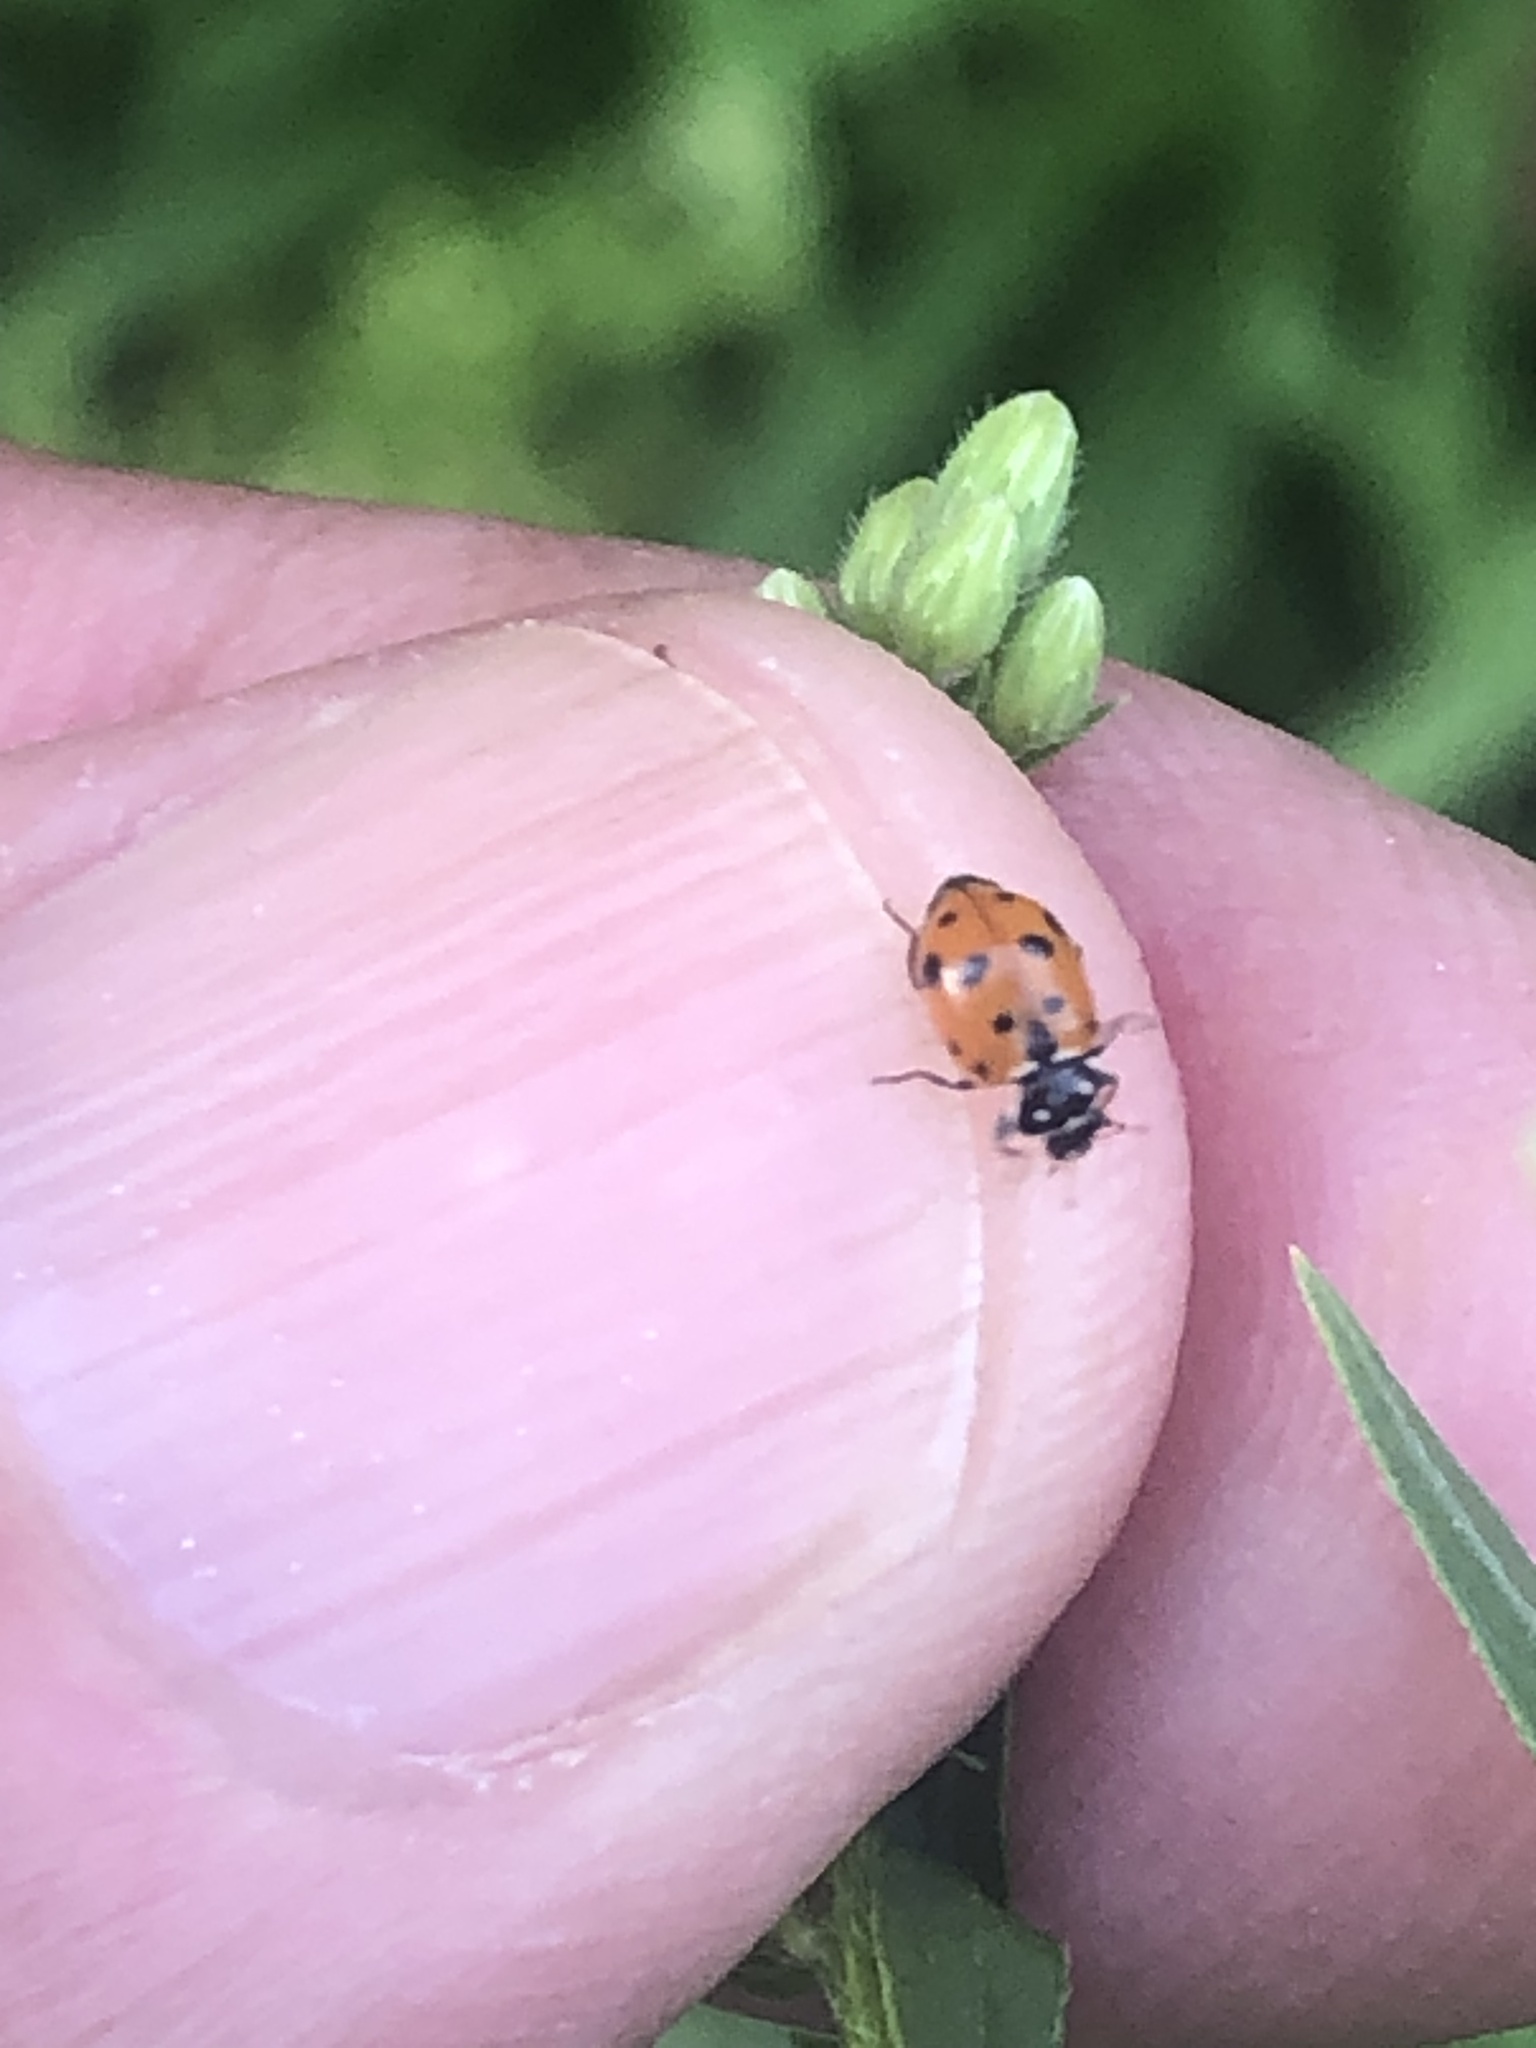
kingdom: Animalia
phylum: Arthropoda
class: Insecta
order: Coleoptera
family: Coccinellidae
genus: Hippodamia
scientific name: Hippodamia variegata
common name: Ladybird beetle
